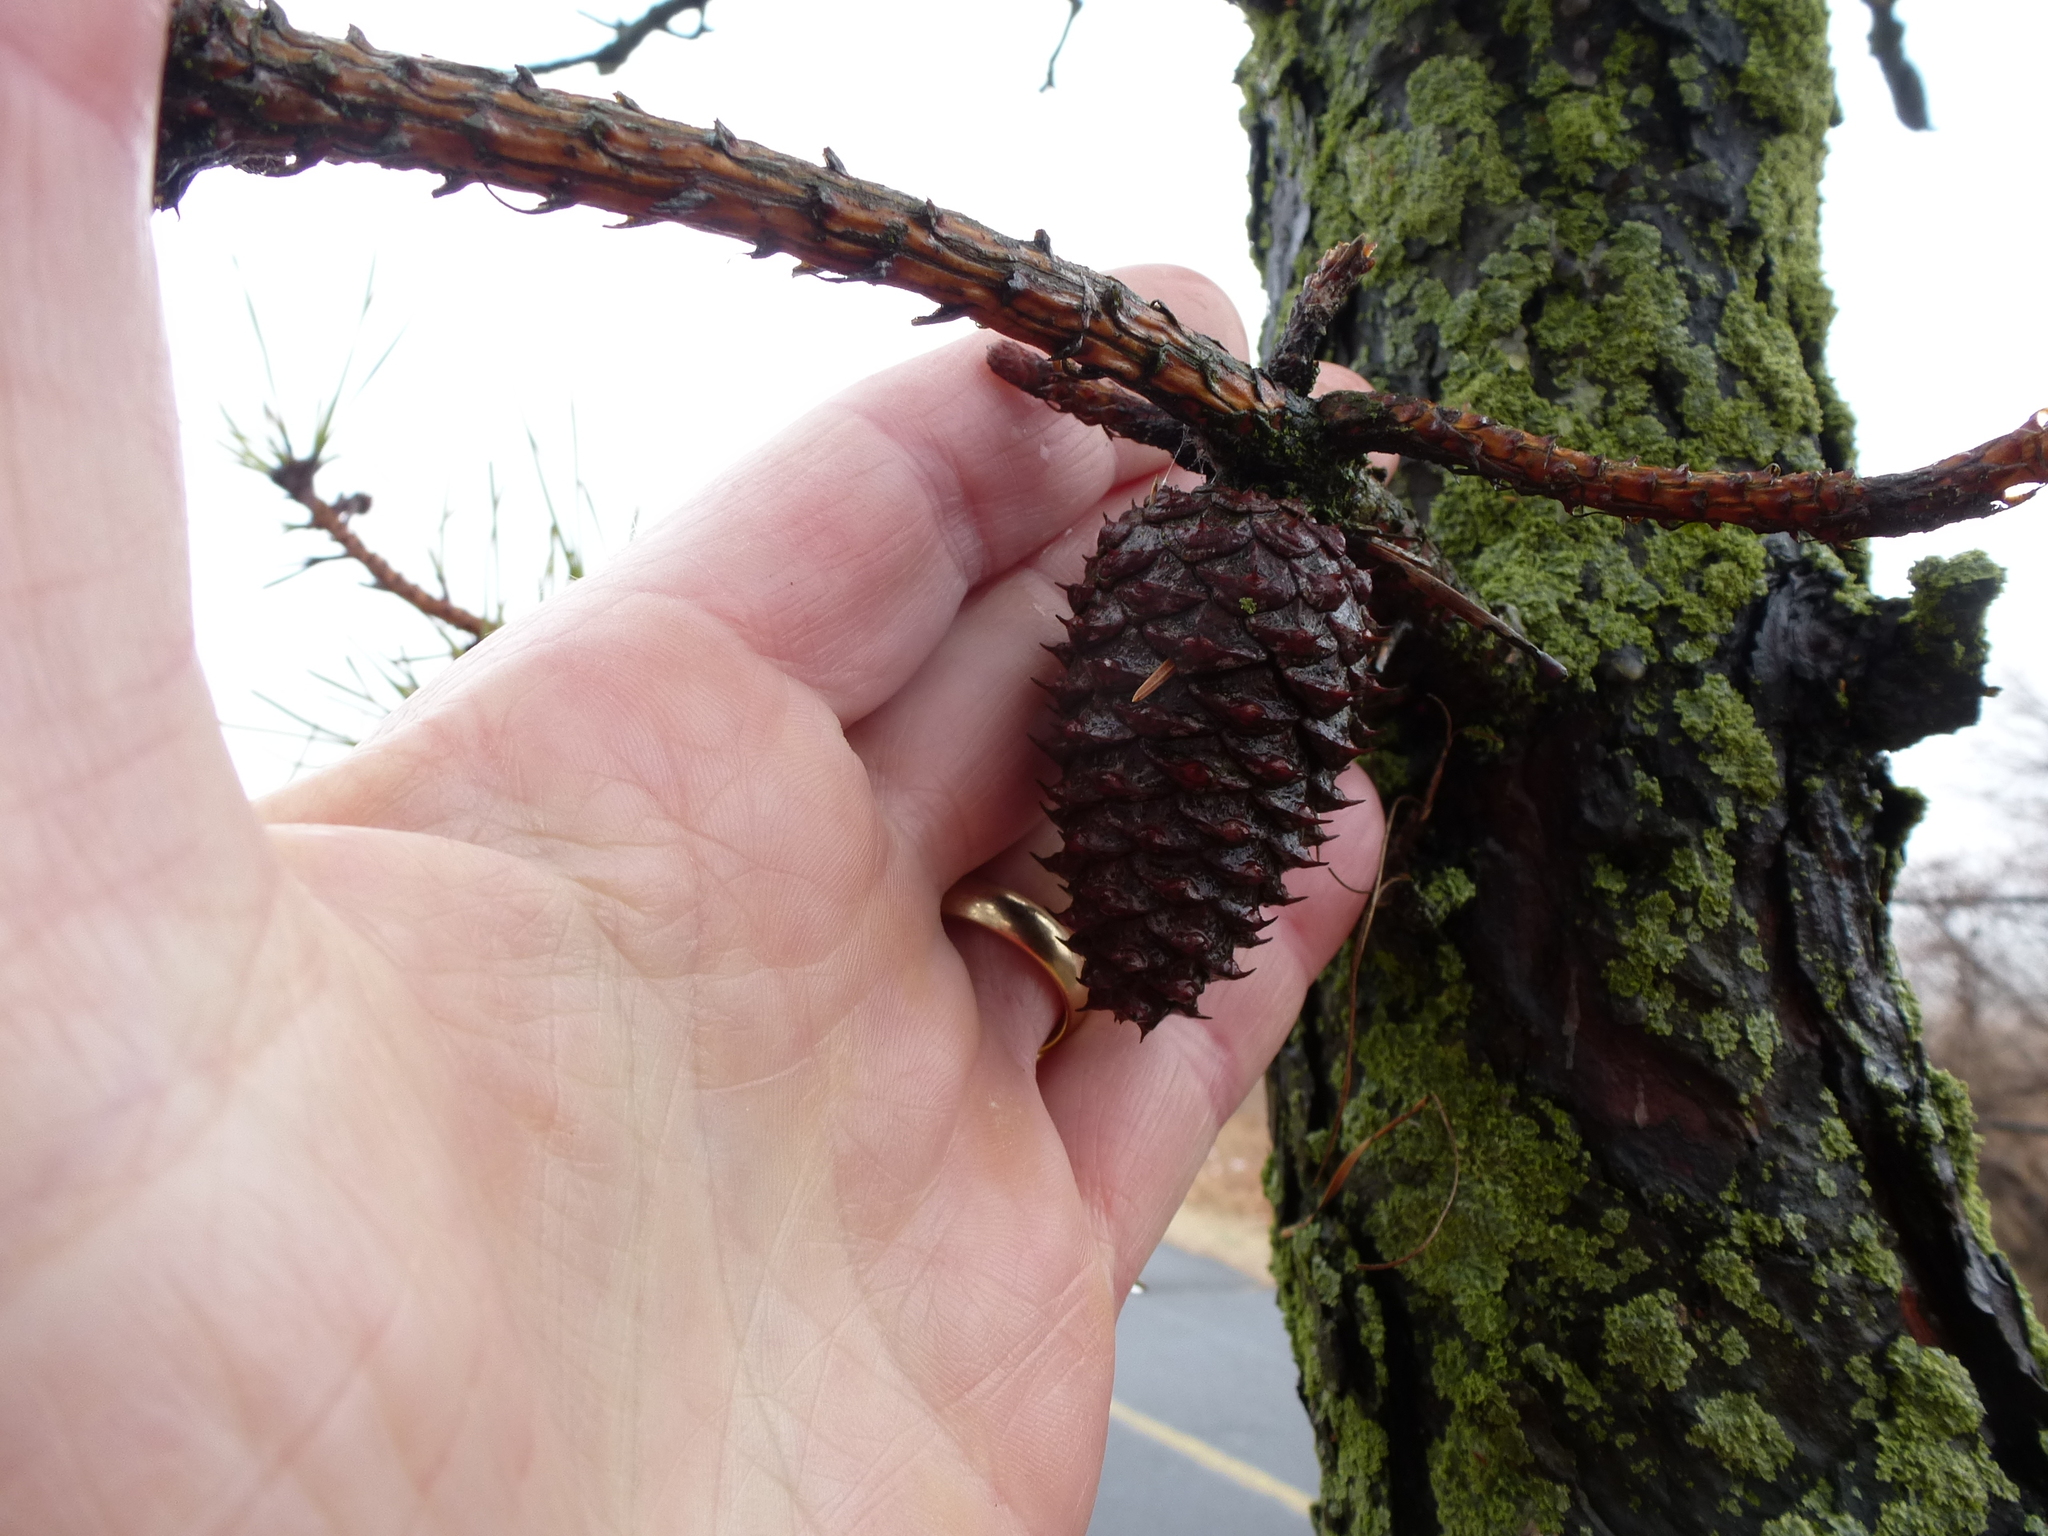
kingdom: Plantae
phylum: Tracheophyta
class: Pinopsida
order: Pinales
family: Pinaceae
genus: Pinus
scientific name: Pinus rigida
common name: Pitch pine
